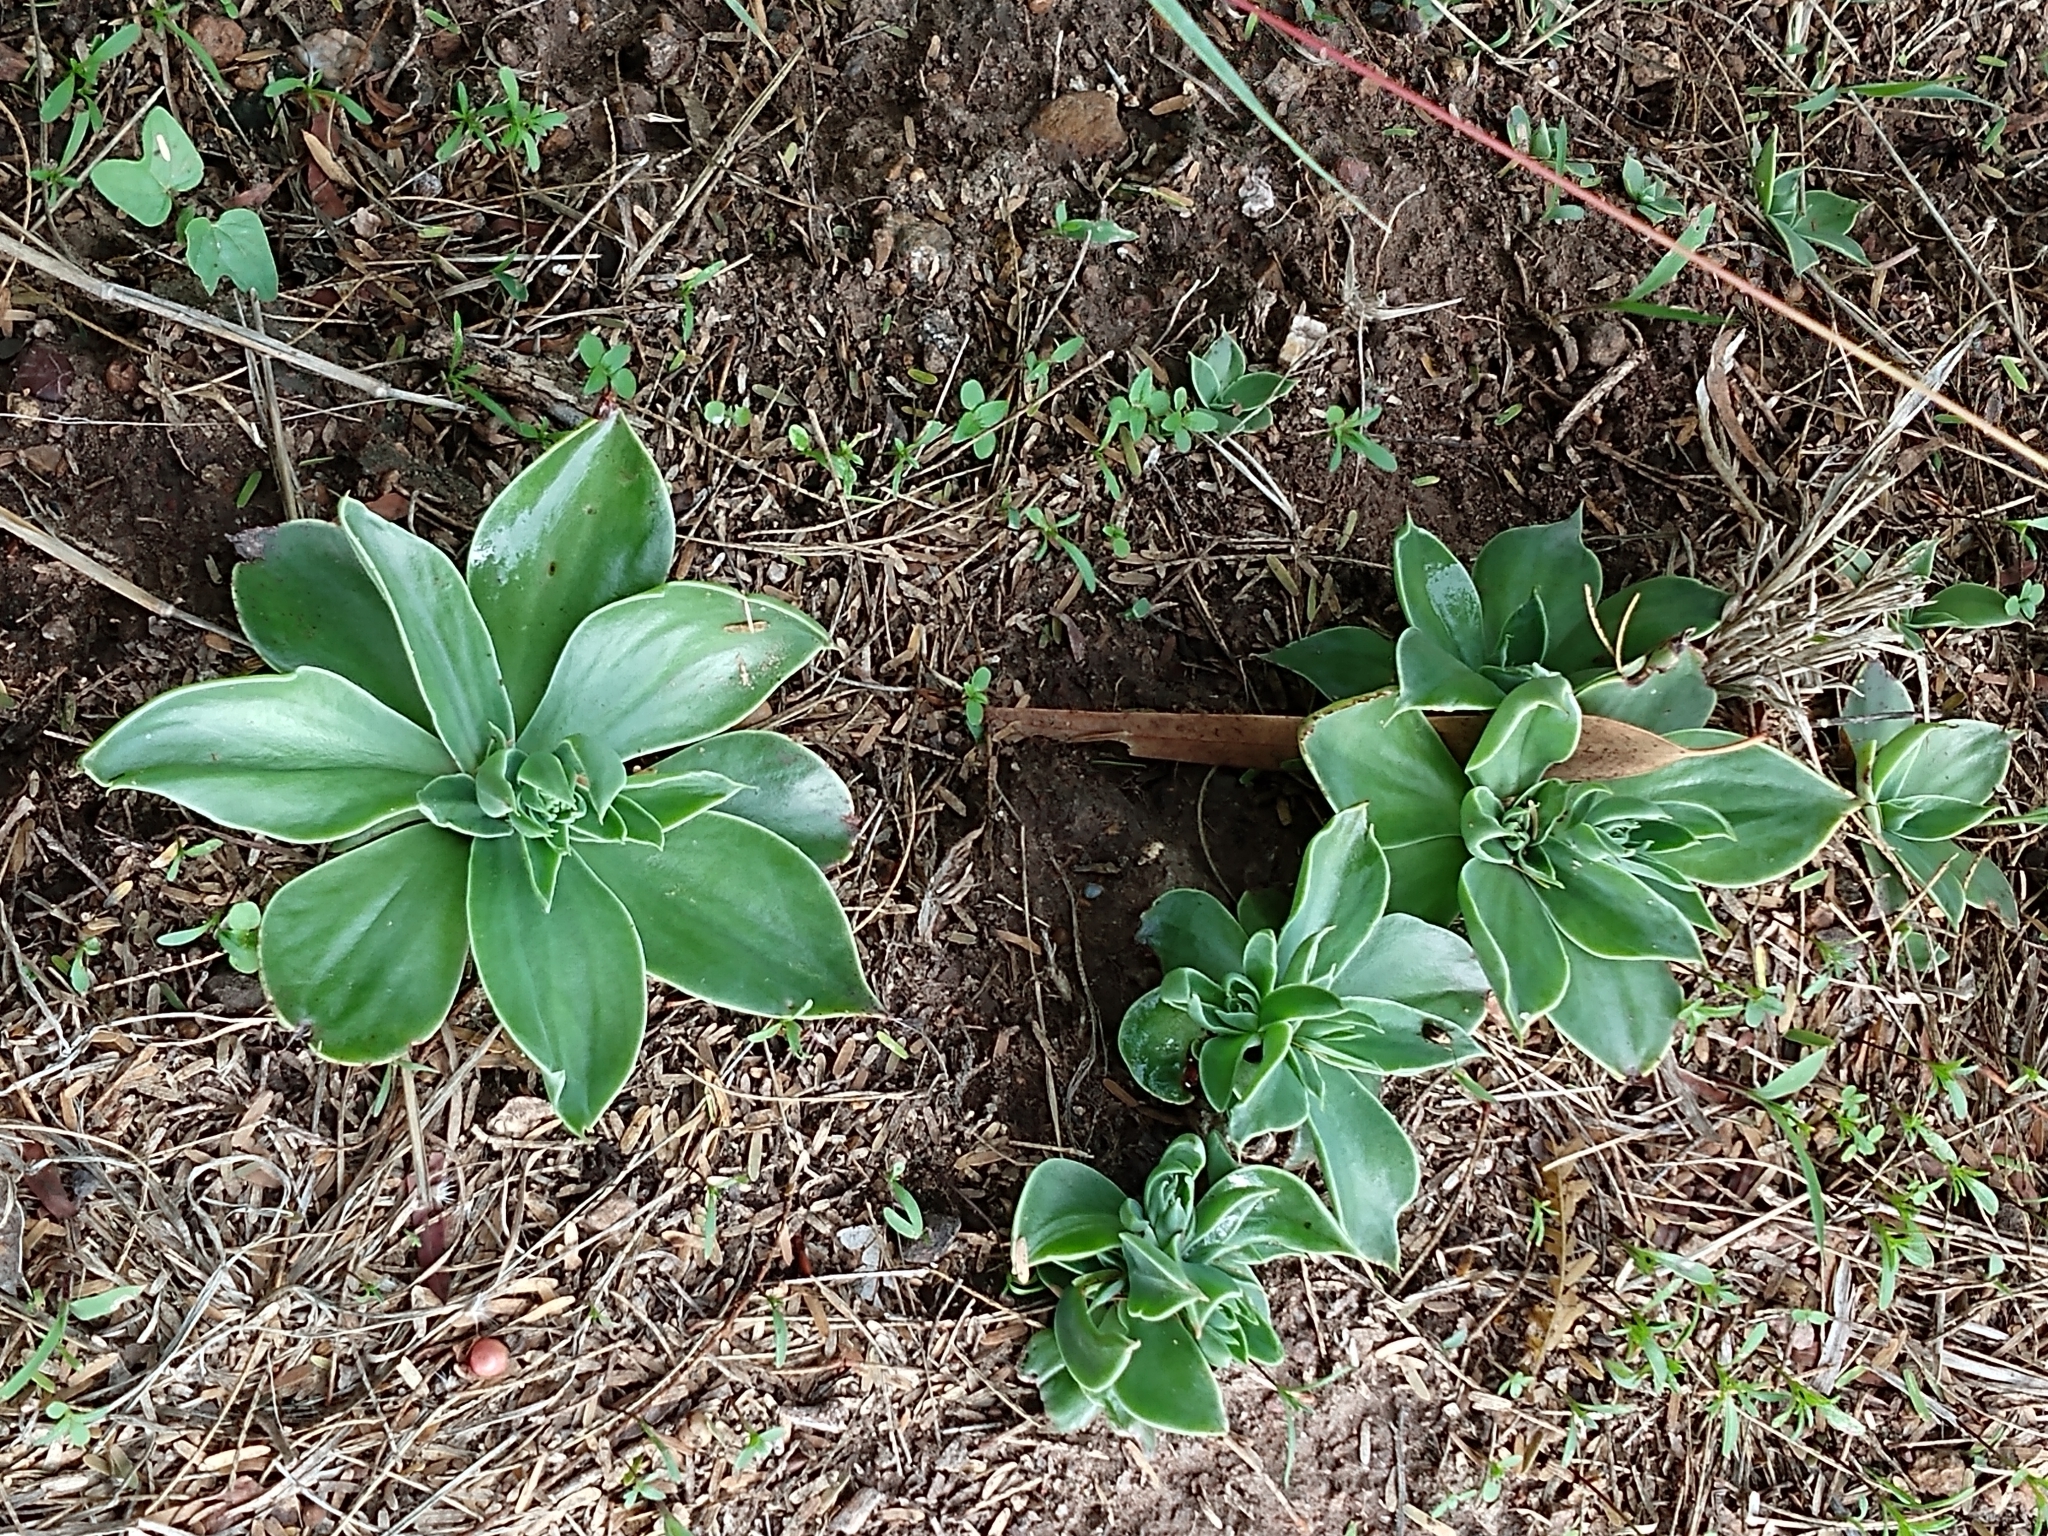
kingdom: Plantae
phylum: Tracheophyta
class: Magnoliopsida
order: Saxifragales
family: Crassulaceae
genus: Echeveria
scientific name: Echeveria platyphylla
